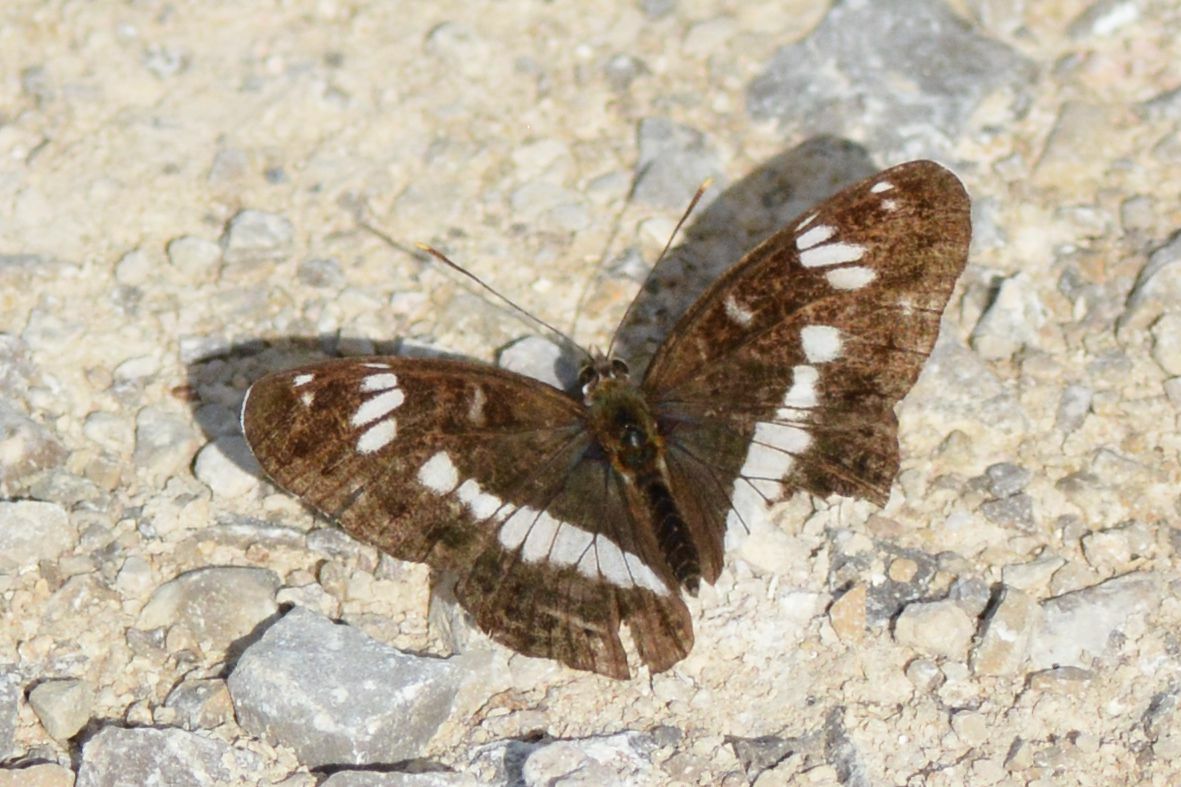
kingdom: Animalia
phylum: Arthropoda
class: Insecta
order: Lepidoptera
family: Nymphalidae
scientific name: Nymphalidae
